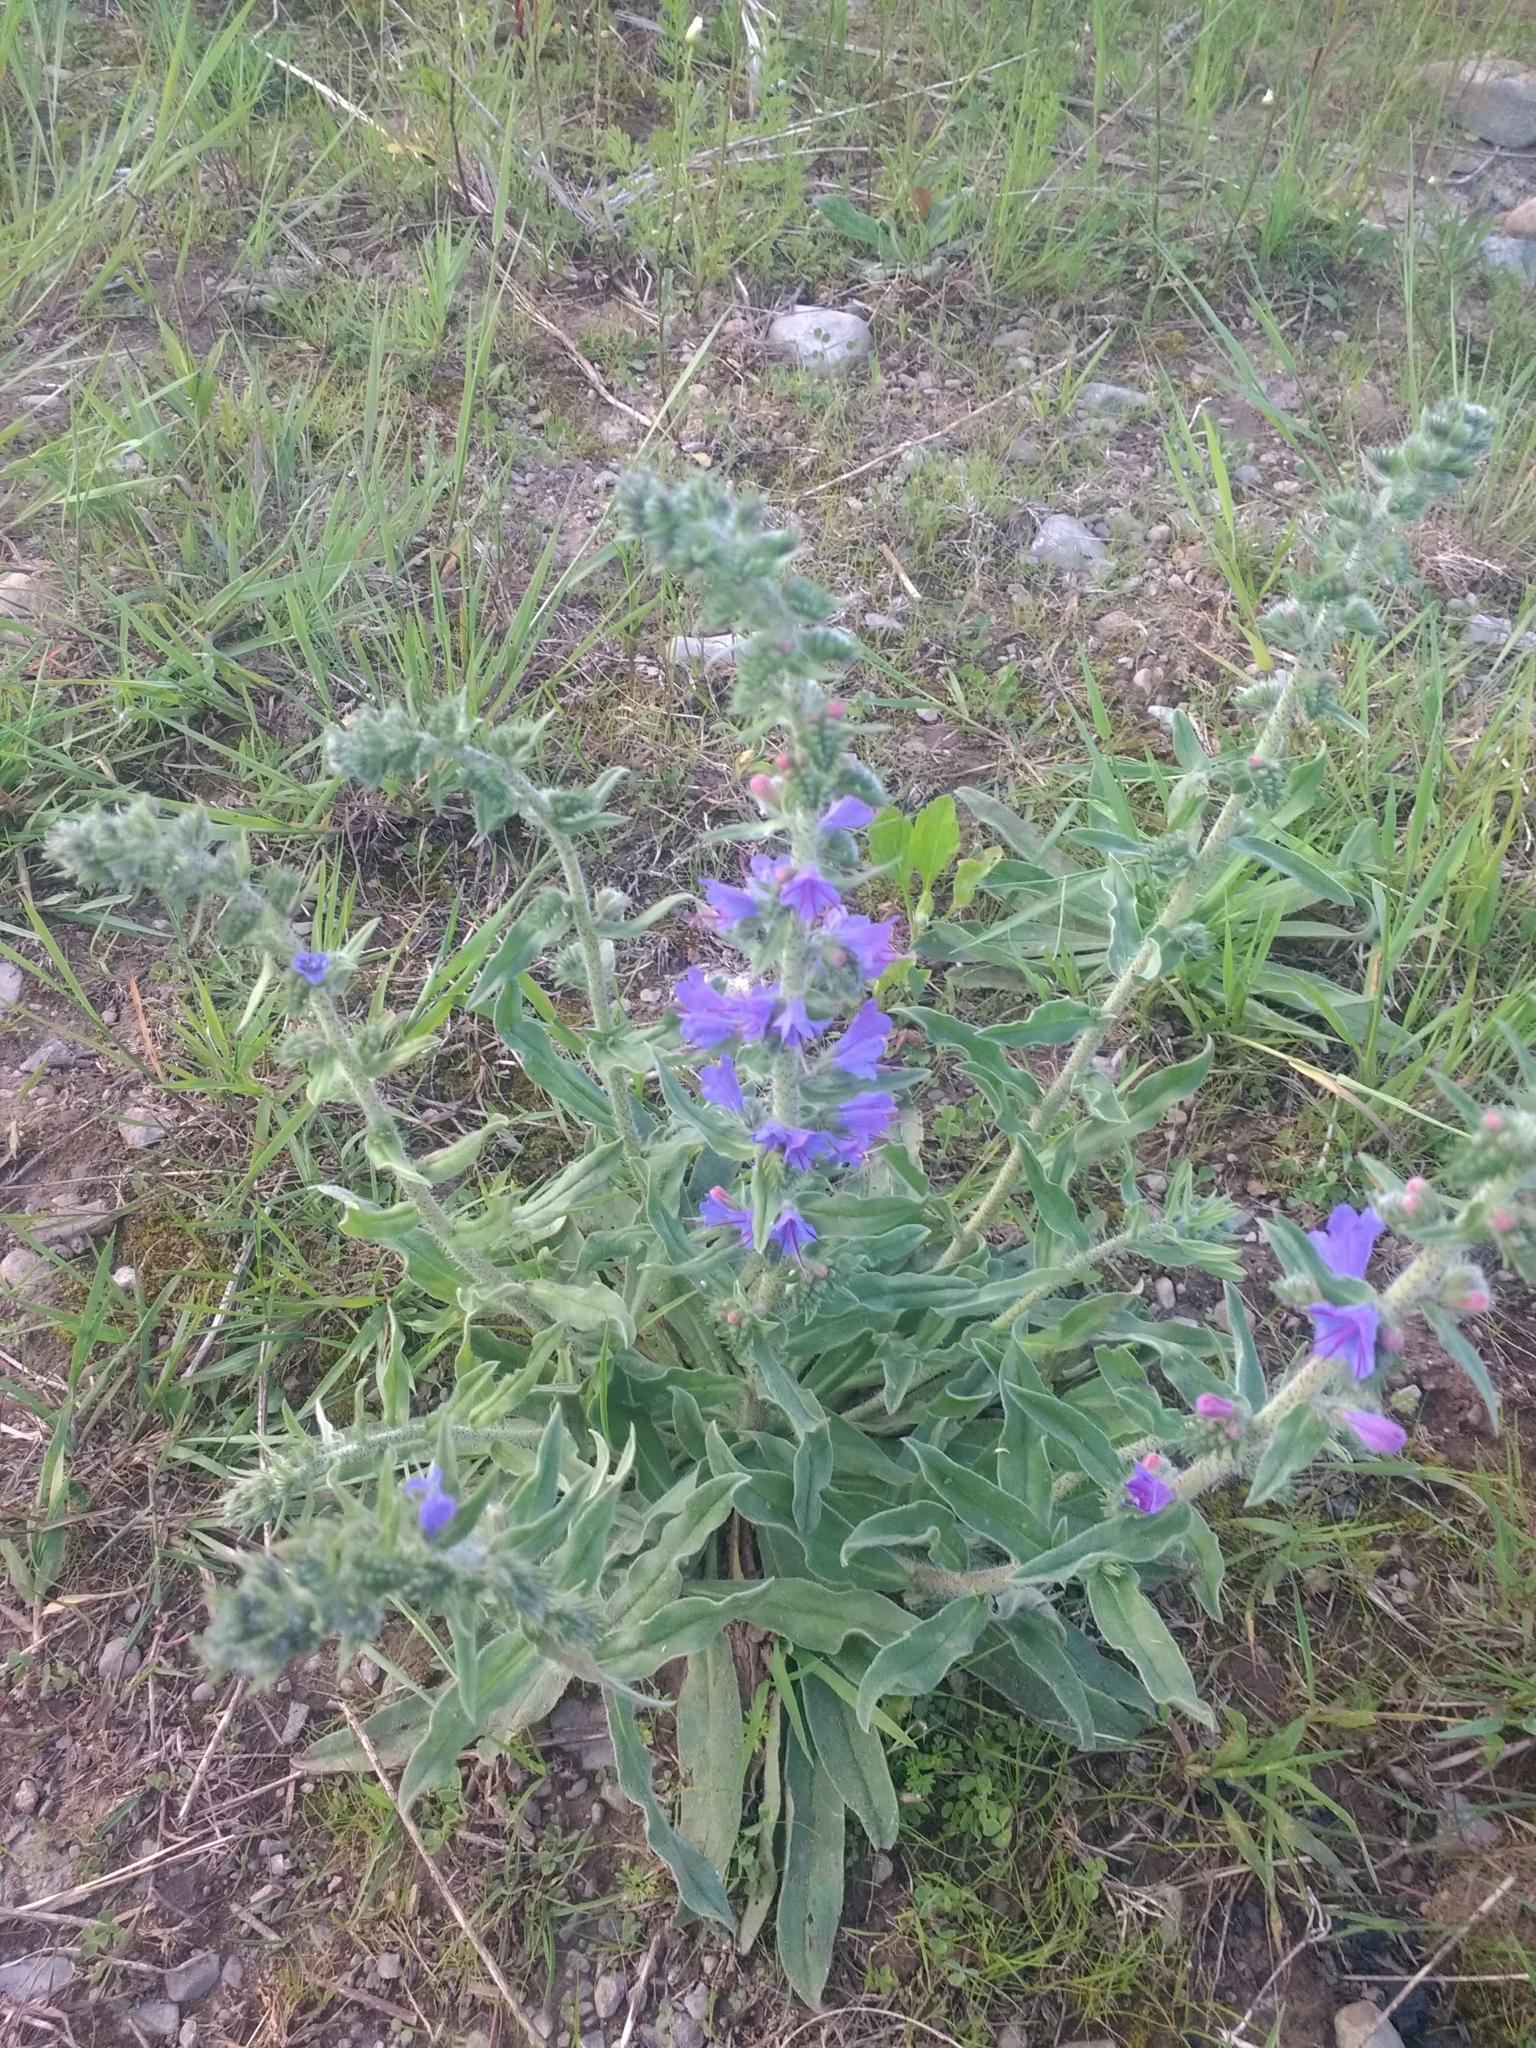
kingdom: Plantae
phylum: Tracheophyta
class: Magnoliopsida
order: Boraginales
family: Boraginaceae
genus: Echium
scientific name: Echium vulgare
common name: Common viper's bugloss
